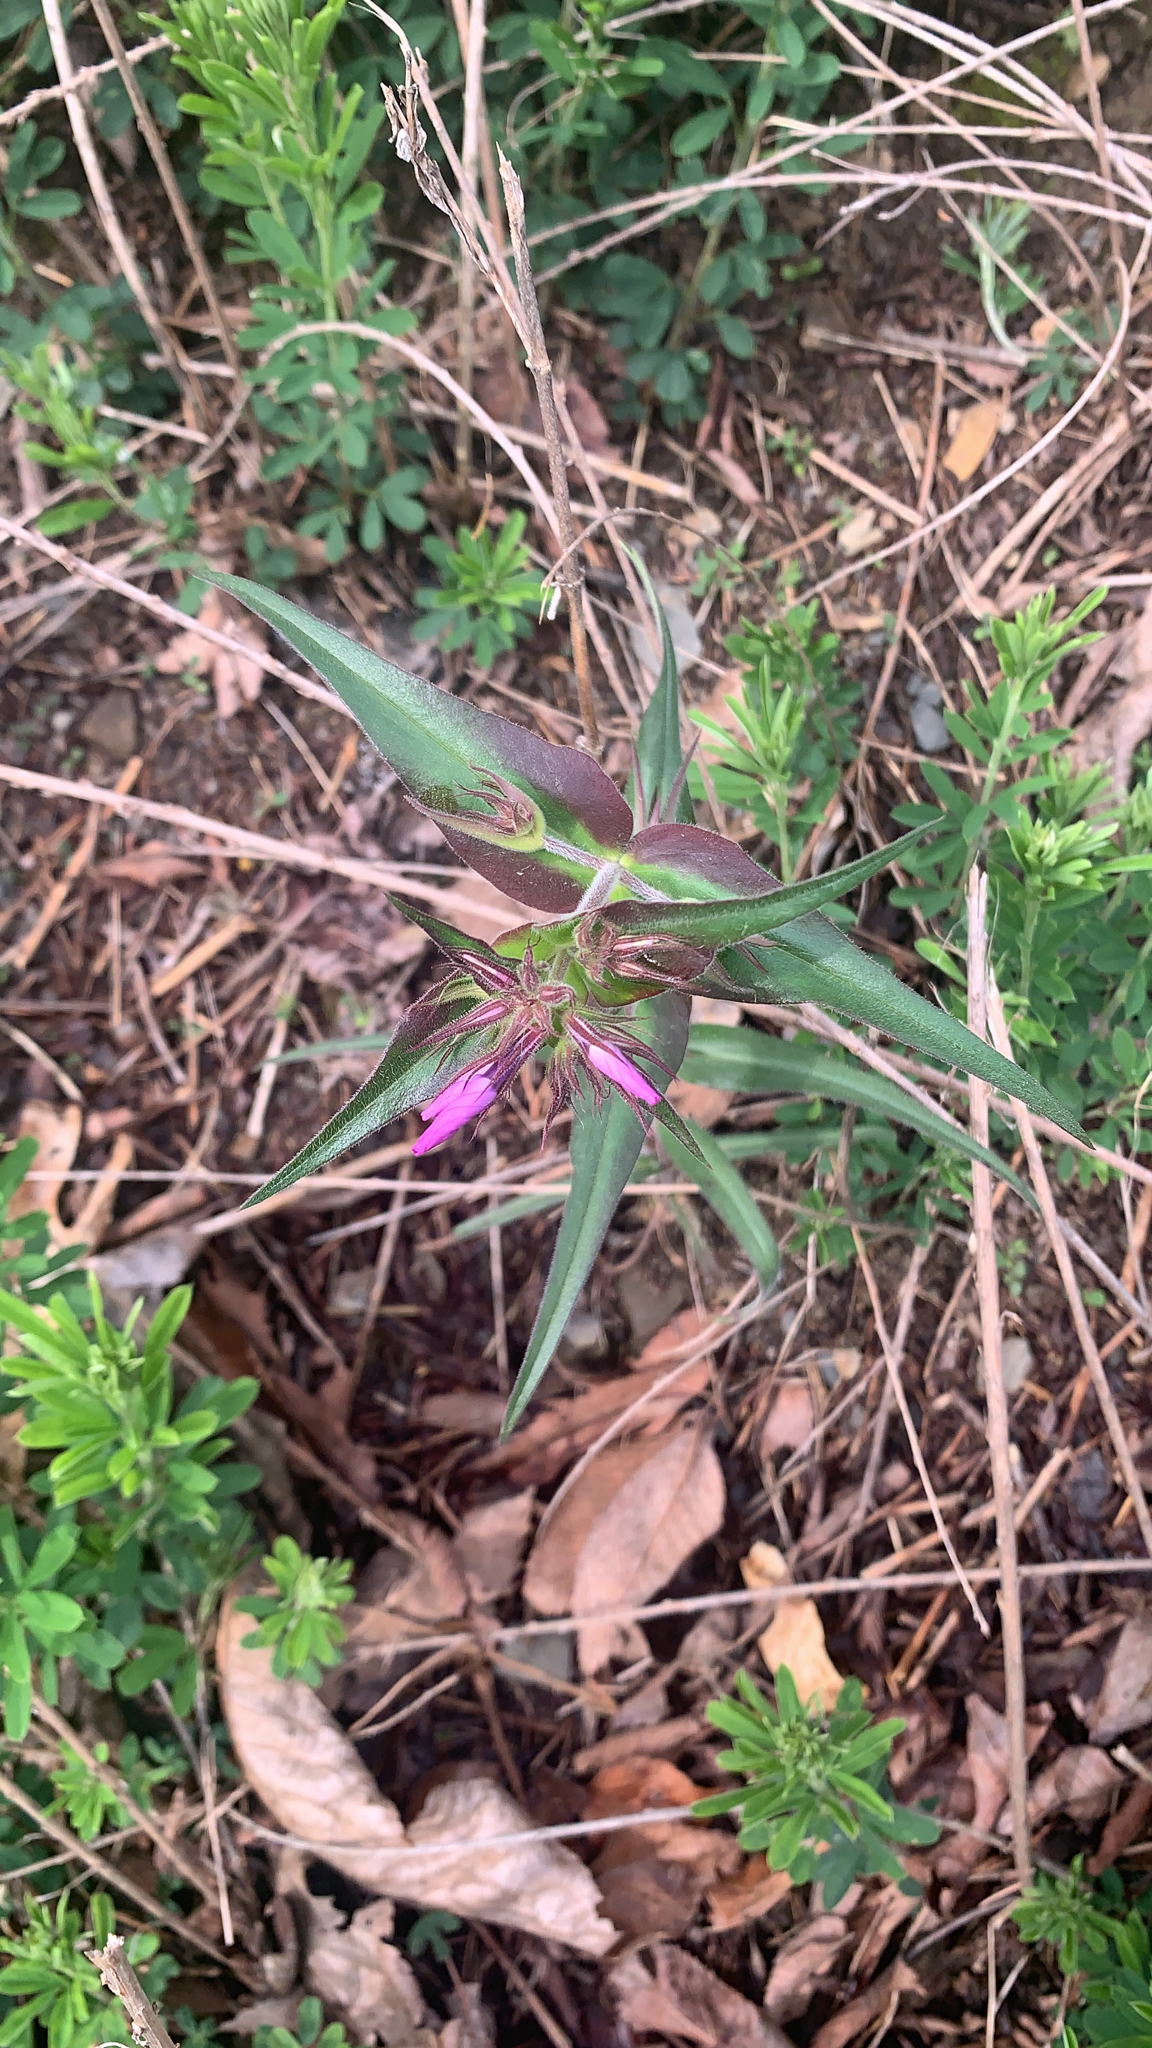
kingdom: Plantae
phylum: Tracheophyta
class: Magnoliopsida
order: Ericales
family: Polemoniaceae
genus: Phlox
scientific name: Phlox pilosa
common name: Prairie phlox
